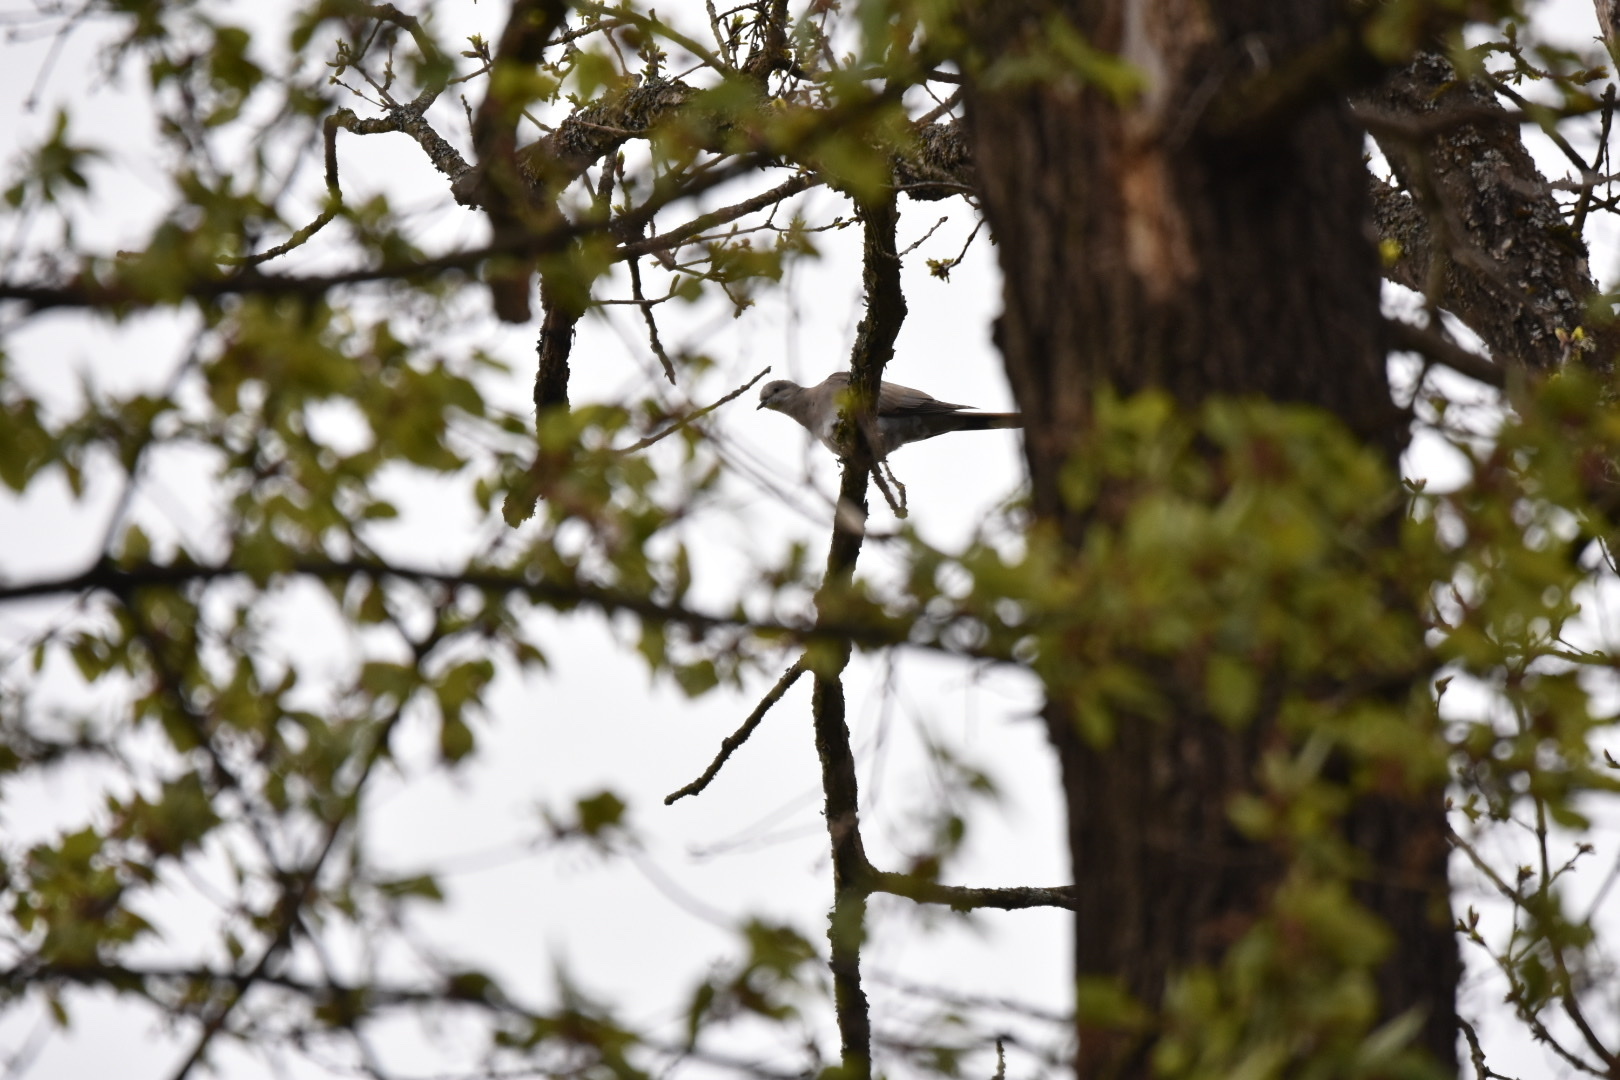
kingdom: Animalia
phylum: Chordata
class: Aves
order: Columbiformes
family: Columbidae
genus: Streptopelia
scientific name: Streptopelia decaocto
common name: Eurasian collared dove
